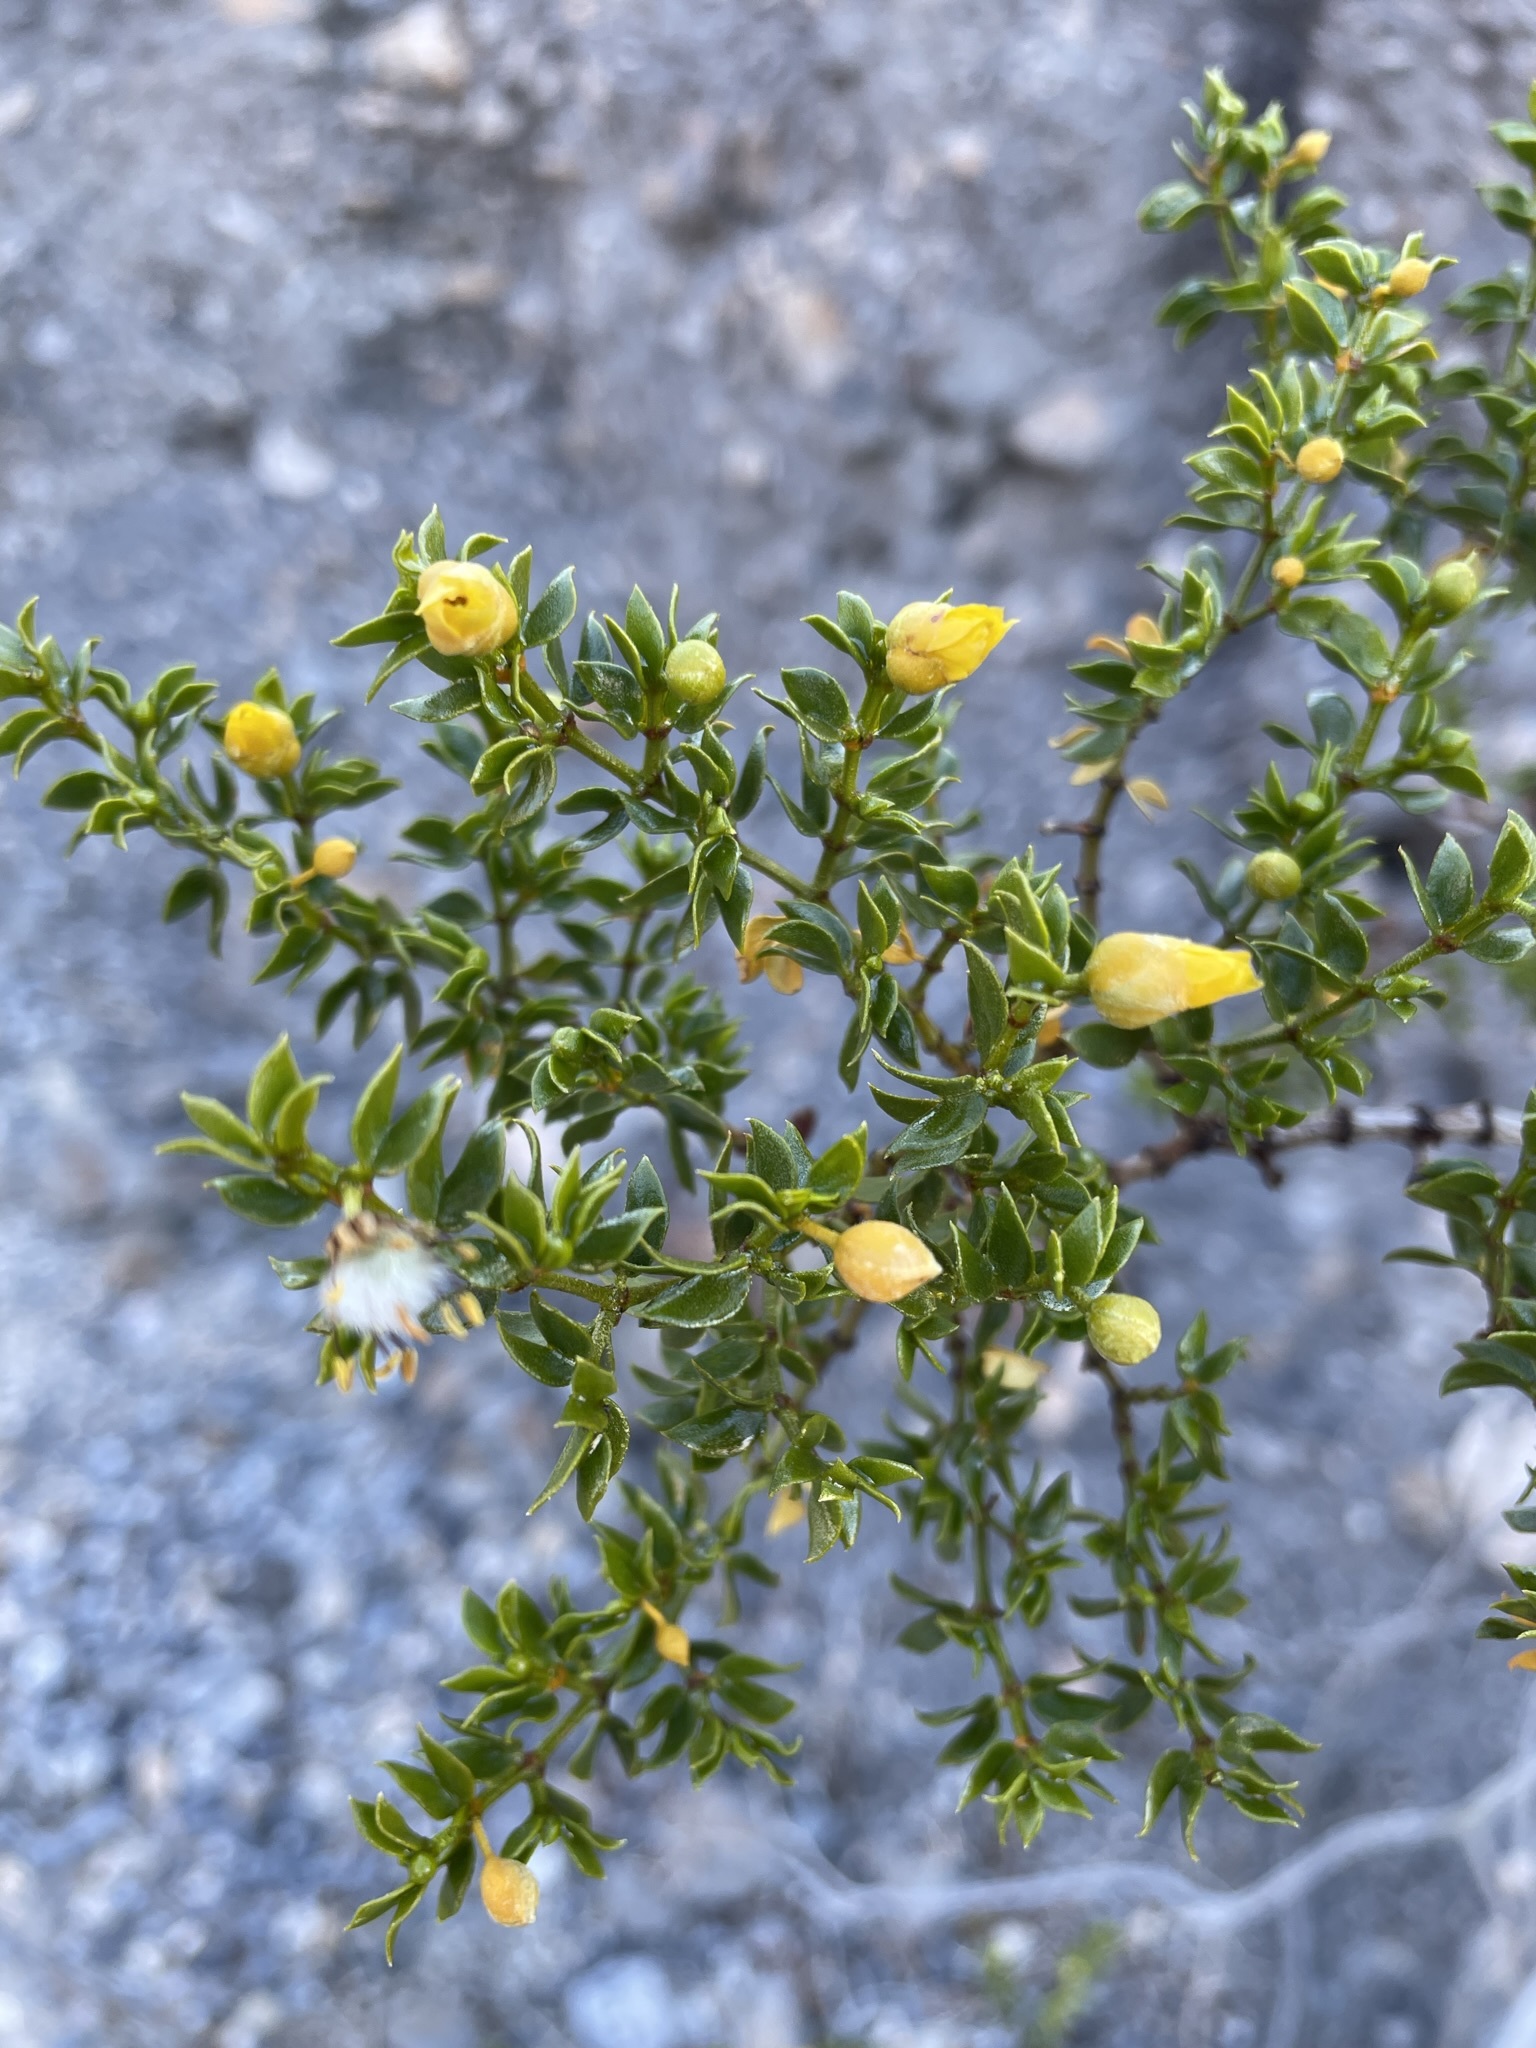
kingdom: Plantae
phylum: Tracheophyta
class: Magnoliopsida
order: Zygophyllales
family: Zygophyllaceae
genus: Larrea
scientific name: Larrea tridentata
